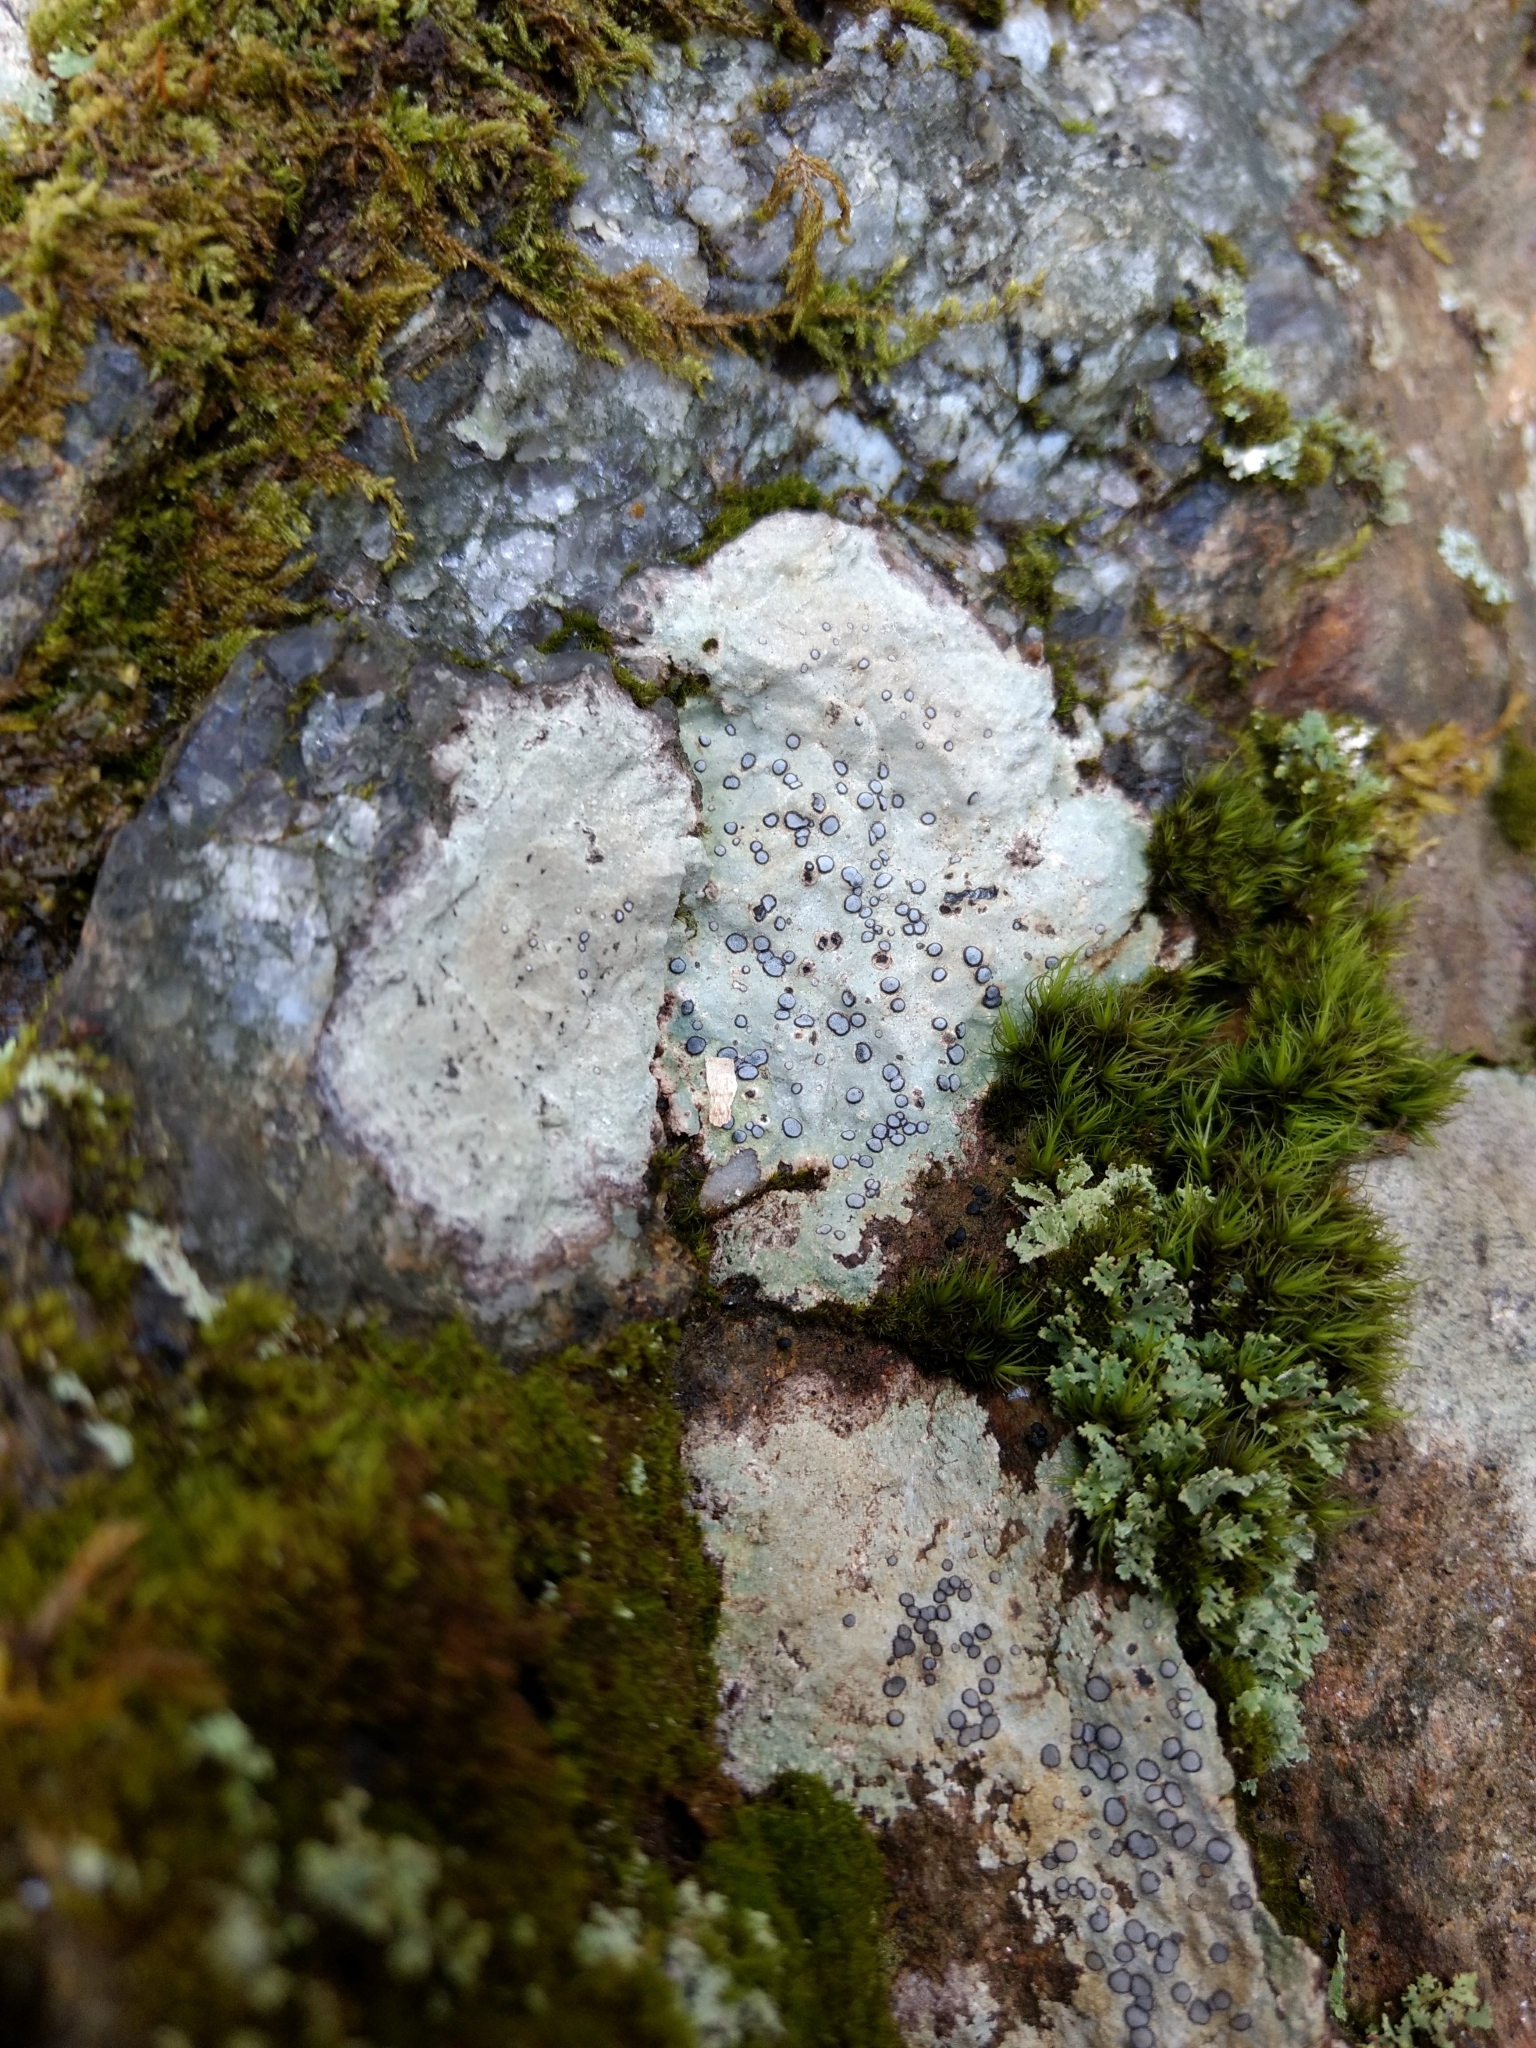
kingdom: Fungi
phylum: Ascomycota
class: Lecanoromycetes
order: Lecideales
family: Lecideaceae
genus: Porpidia
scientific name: Porpidia albocaerulescens
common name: Smokey-eyed boulder lichen
